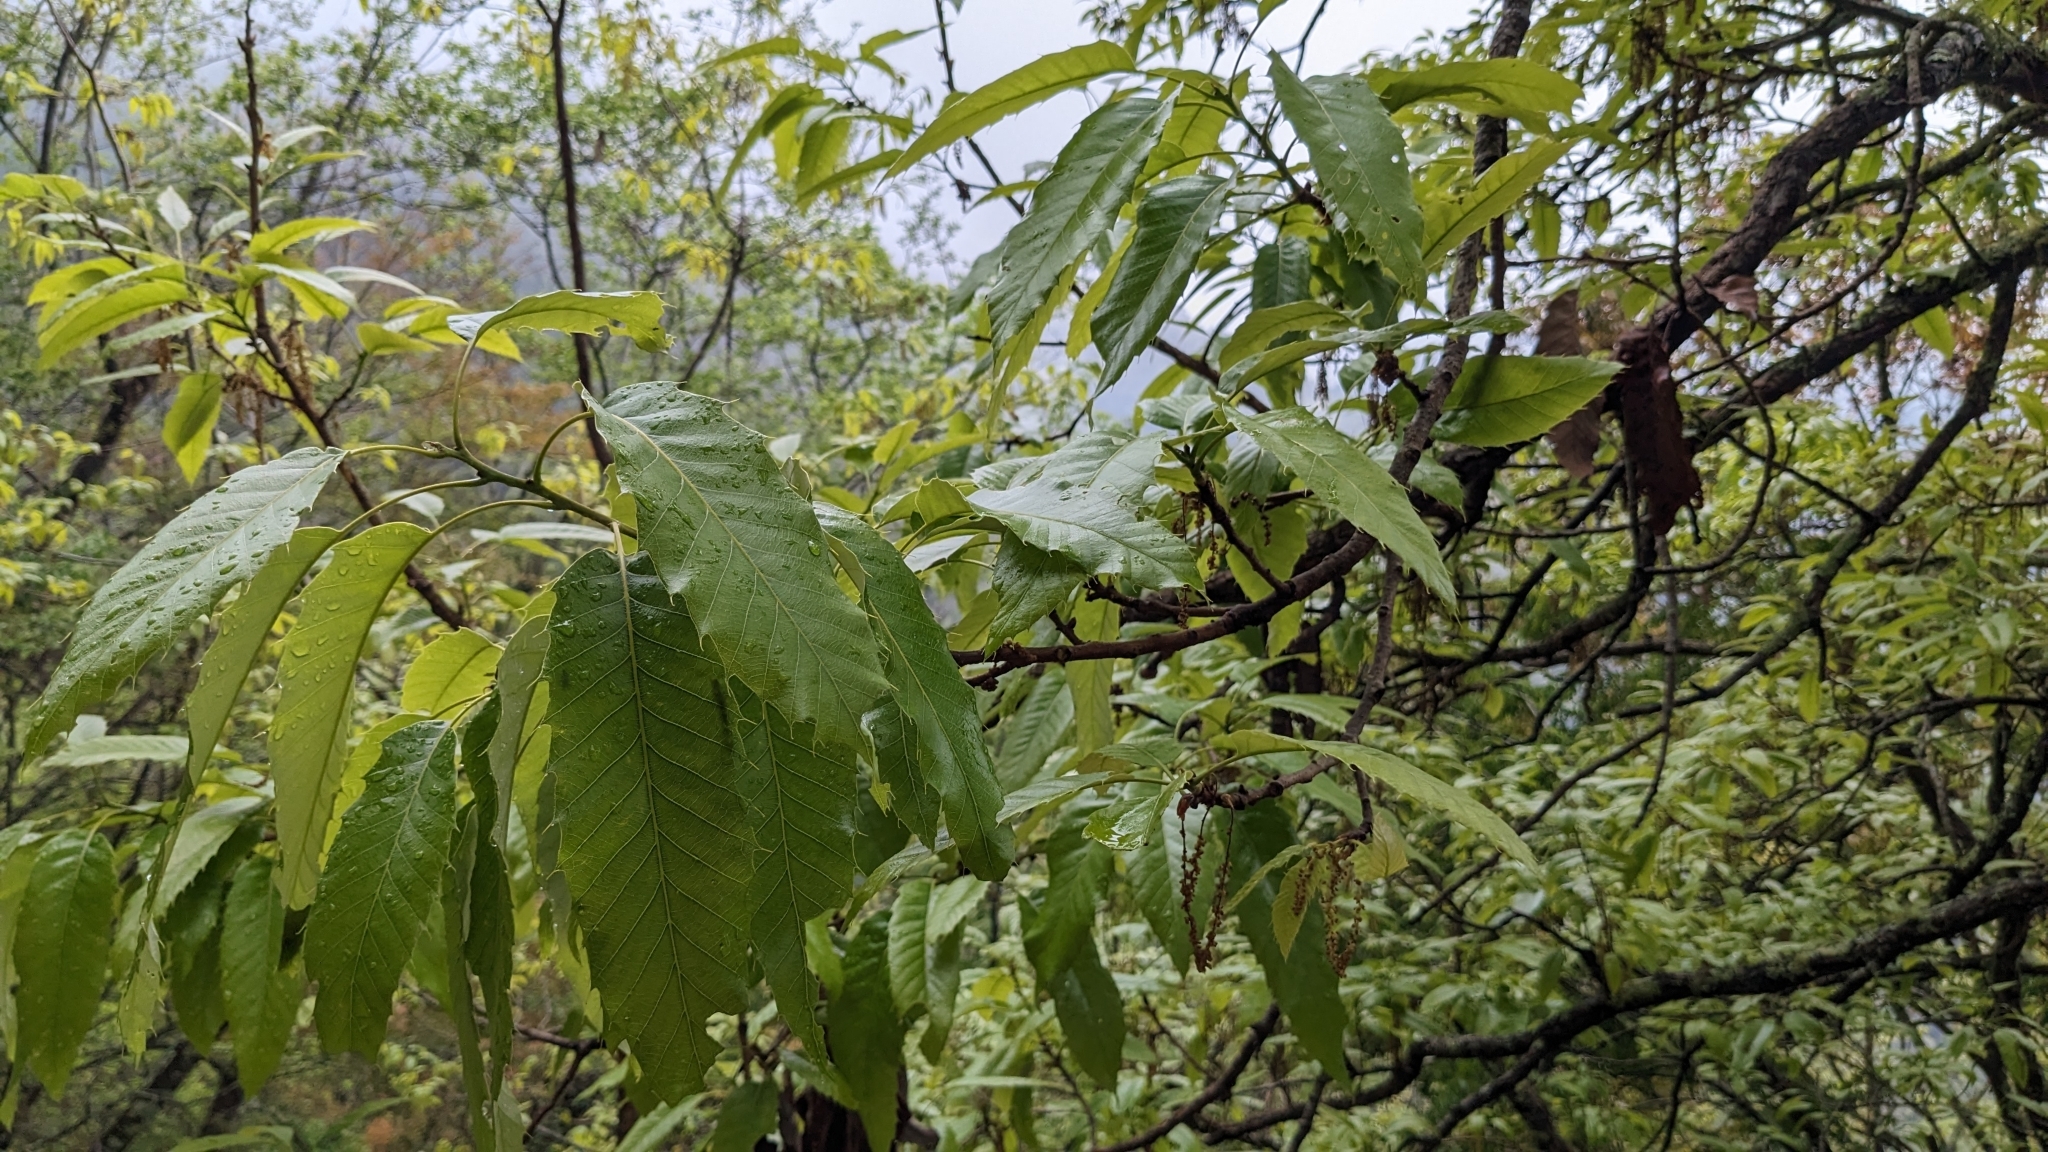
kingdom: Plantae
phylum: Tracheophyta
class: Magnoliopsida
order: Fagales
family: Fagaceae
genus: Quercus
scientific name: Quercus variabilis
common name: Chinese cork oak
